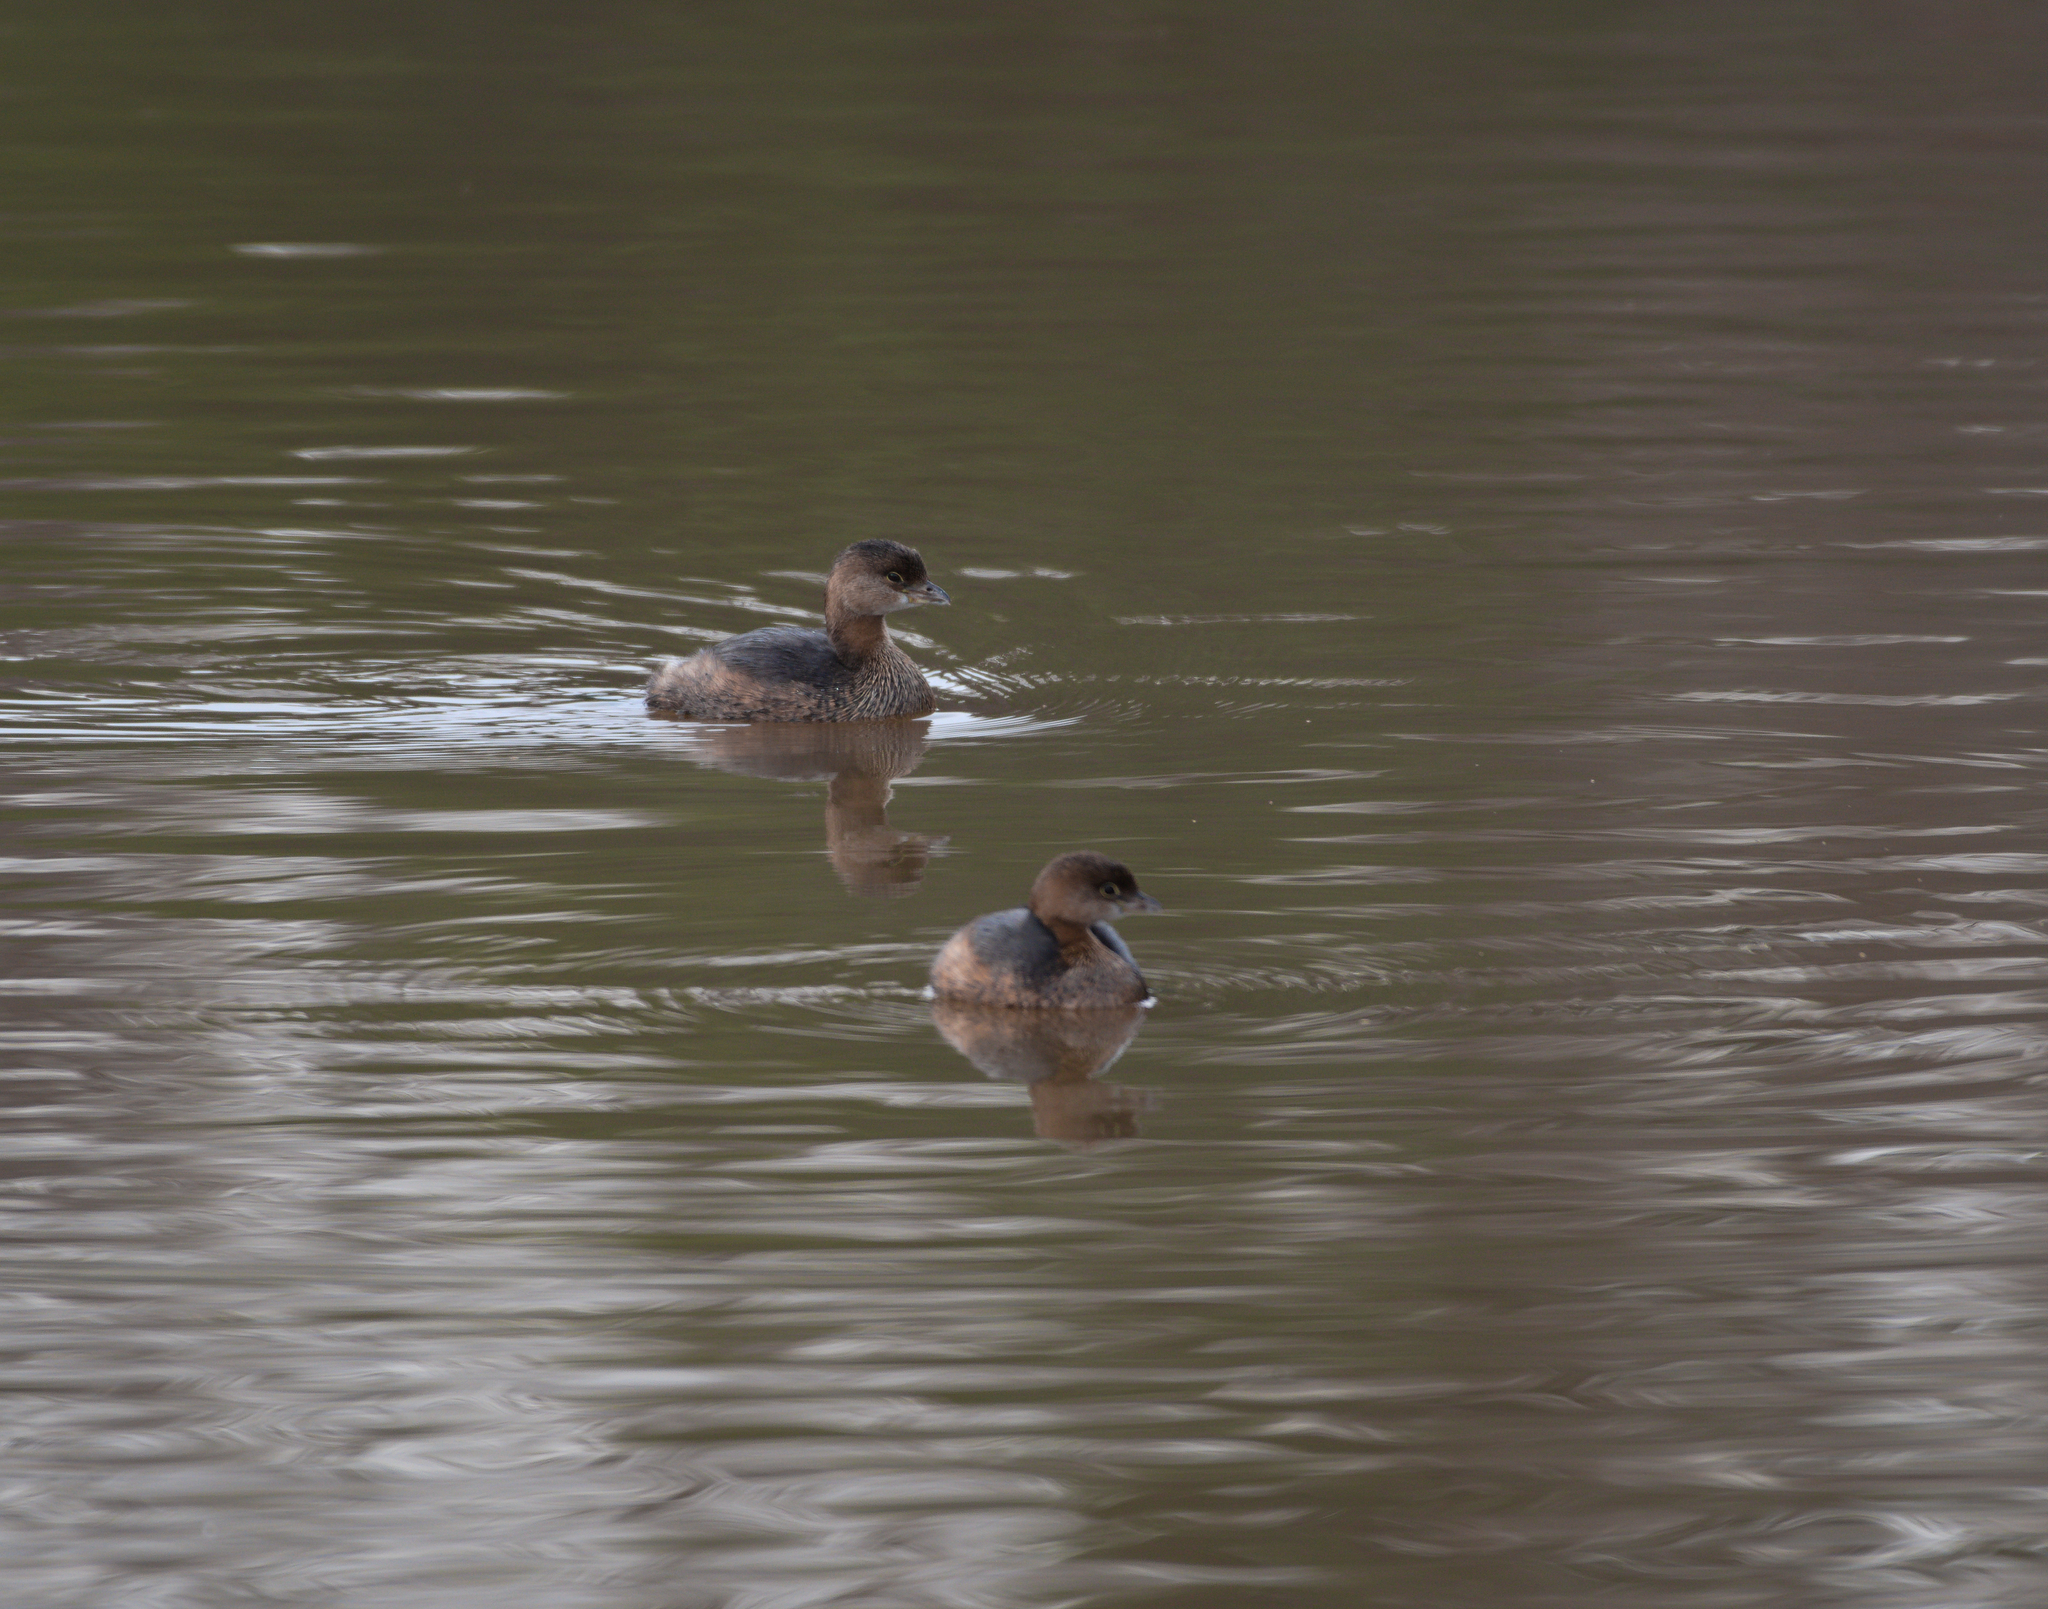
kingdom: Animalia
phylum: Chordata
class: Aves
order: Podicipediformes
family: Podicipedidae
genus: Podilymbus
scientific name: Podilymbus podiceps
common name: Pied-billed grebe
